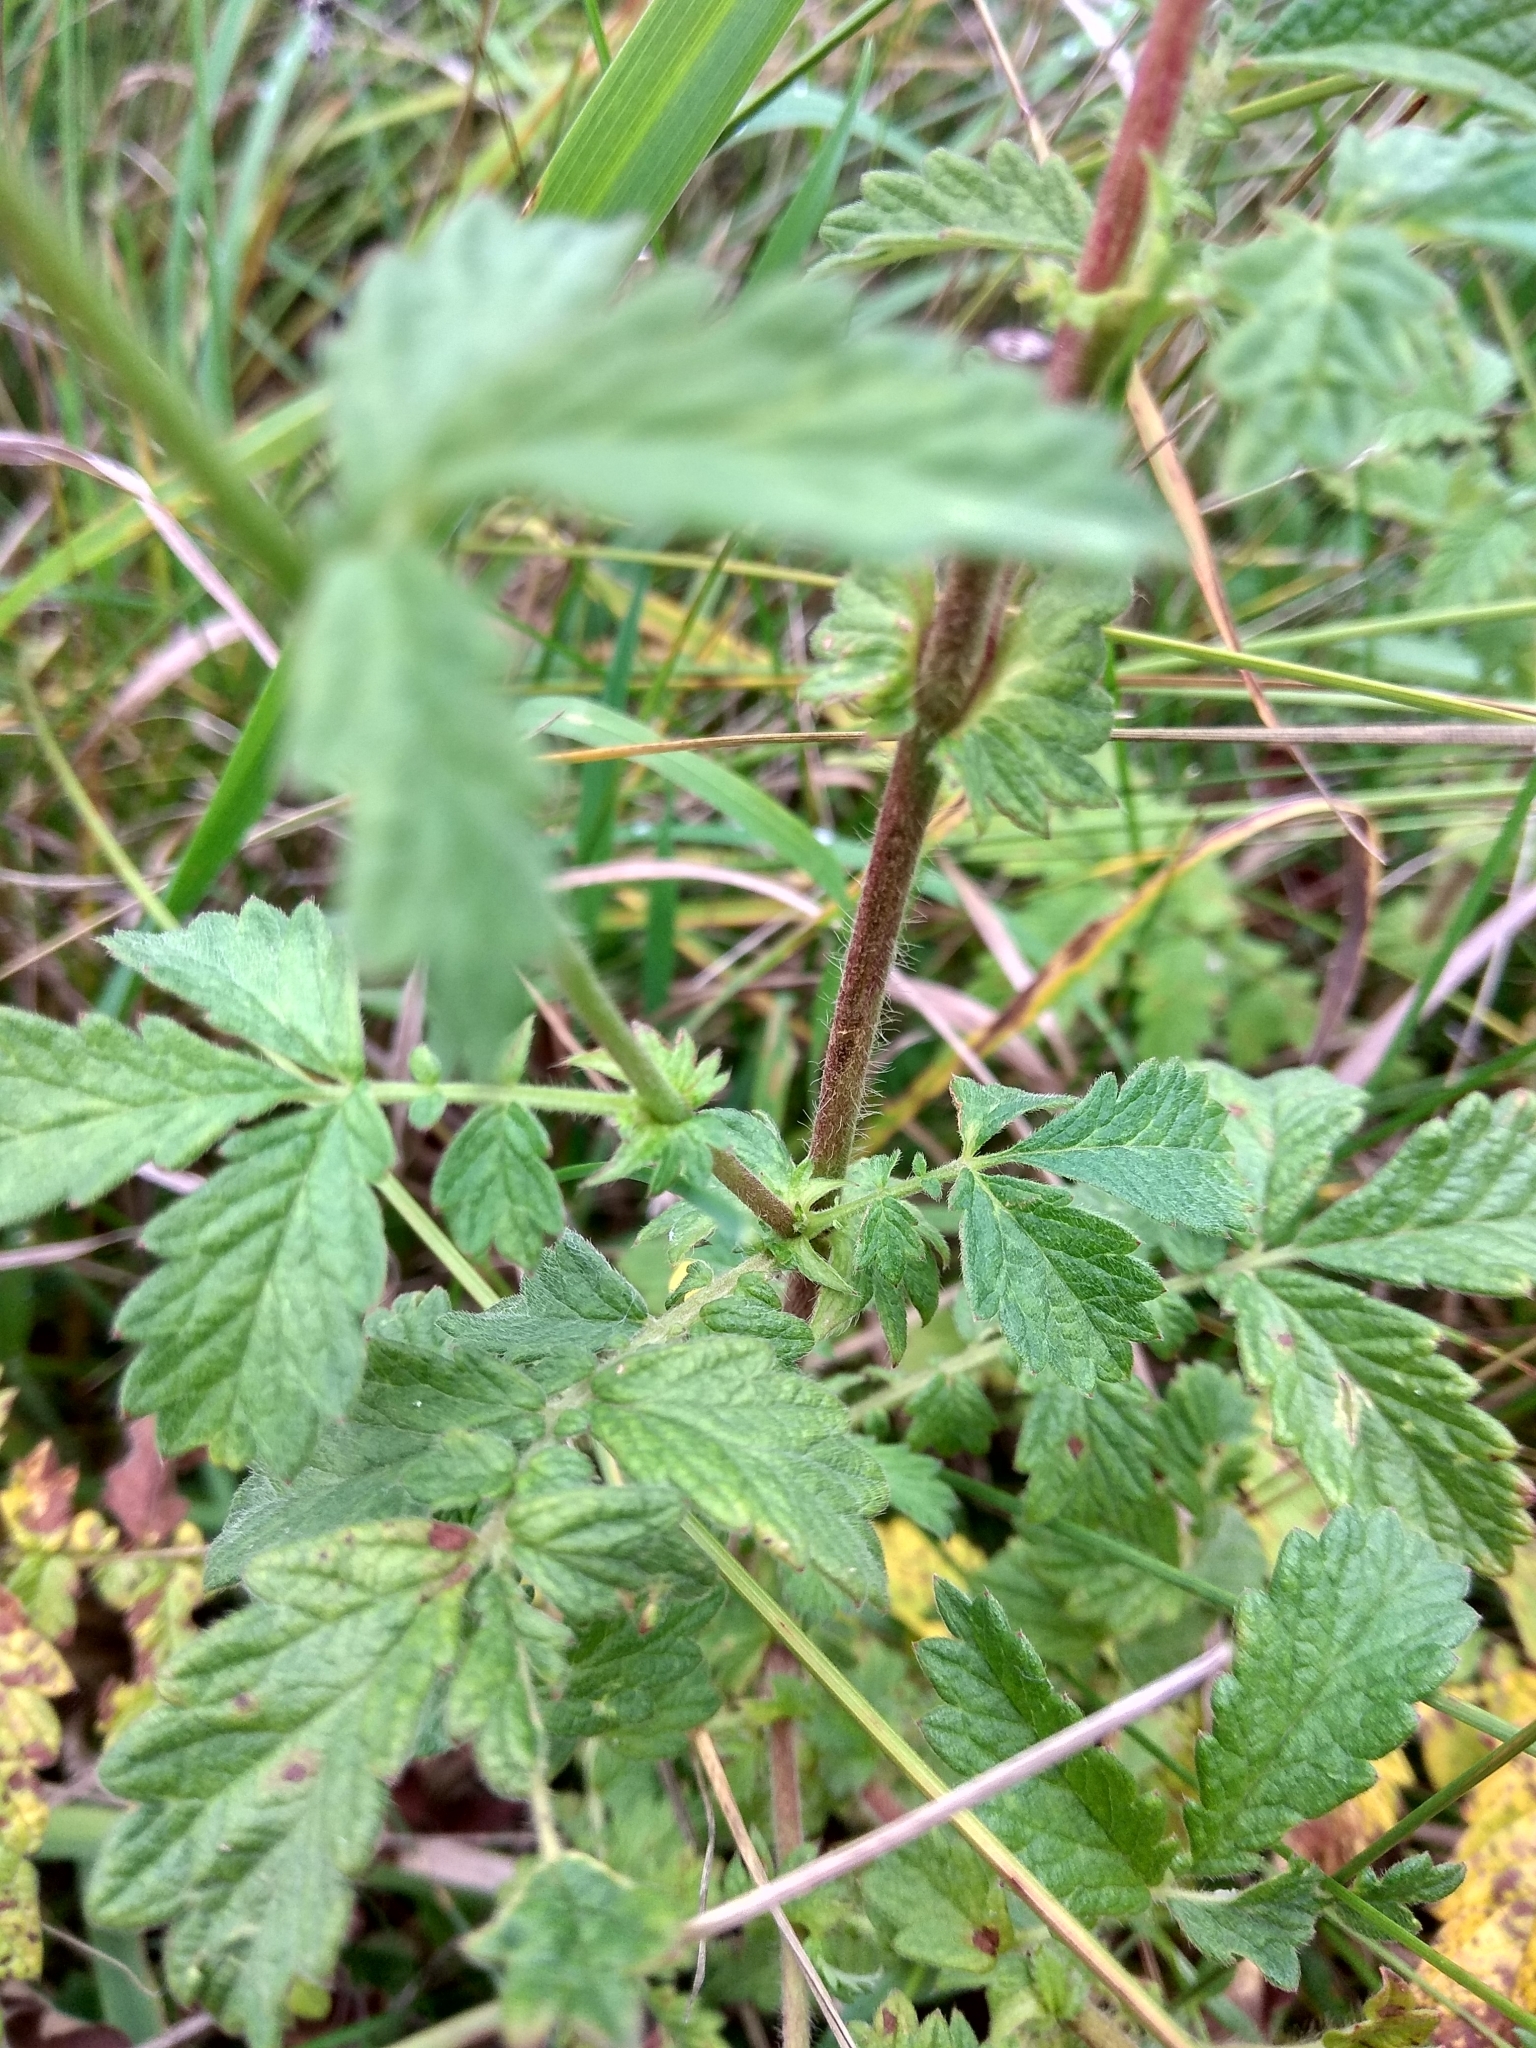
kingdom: Plantae
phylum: Tracheophyta
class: Magnoliopsida
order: Rosales
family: Rosaceae
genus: Agrimonia
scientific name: Agrimonia eupatoria
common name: Agrimony
